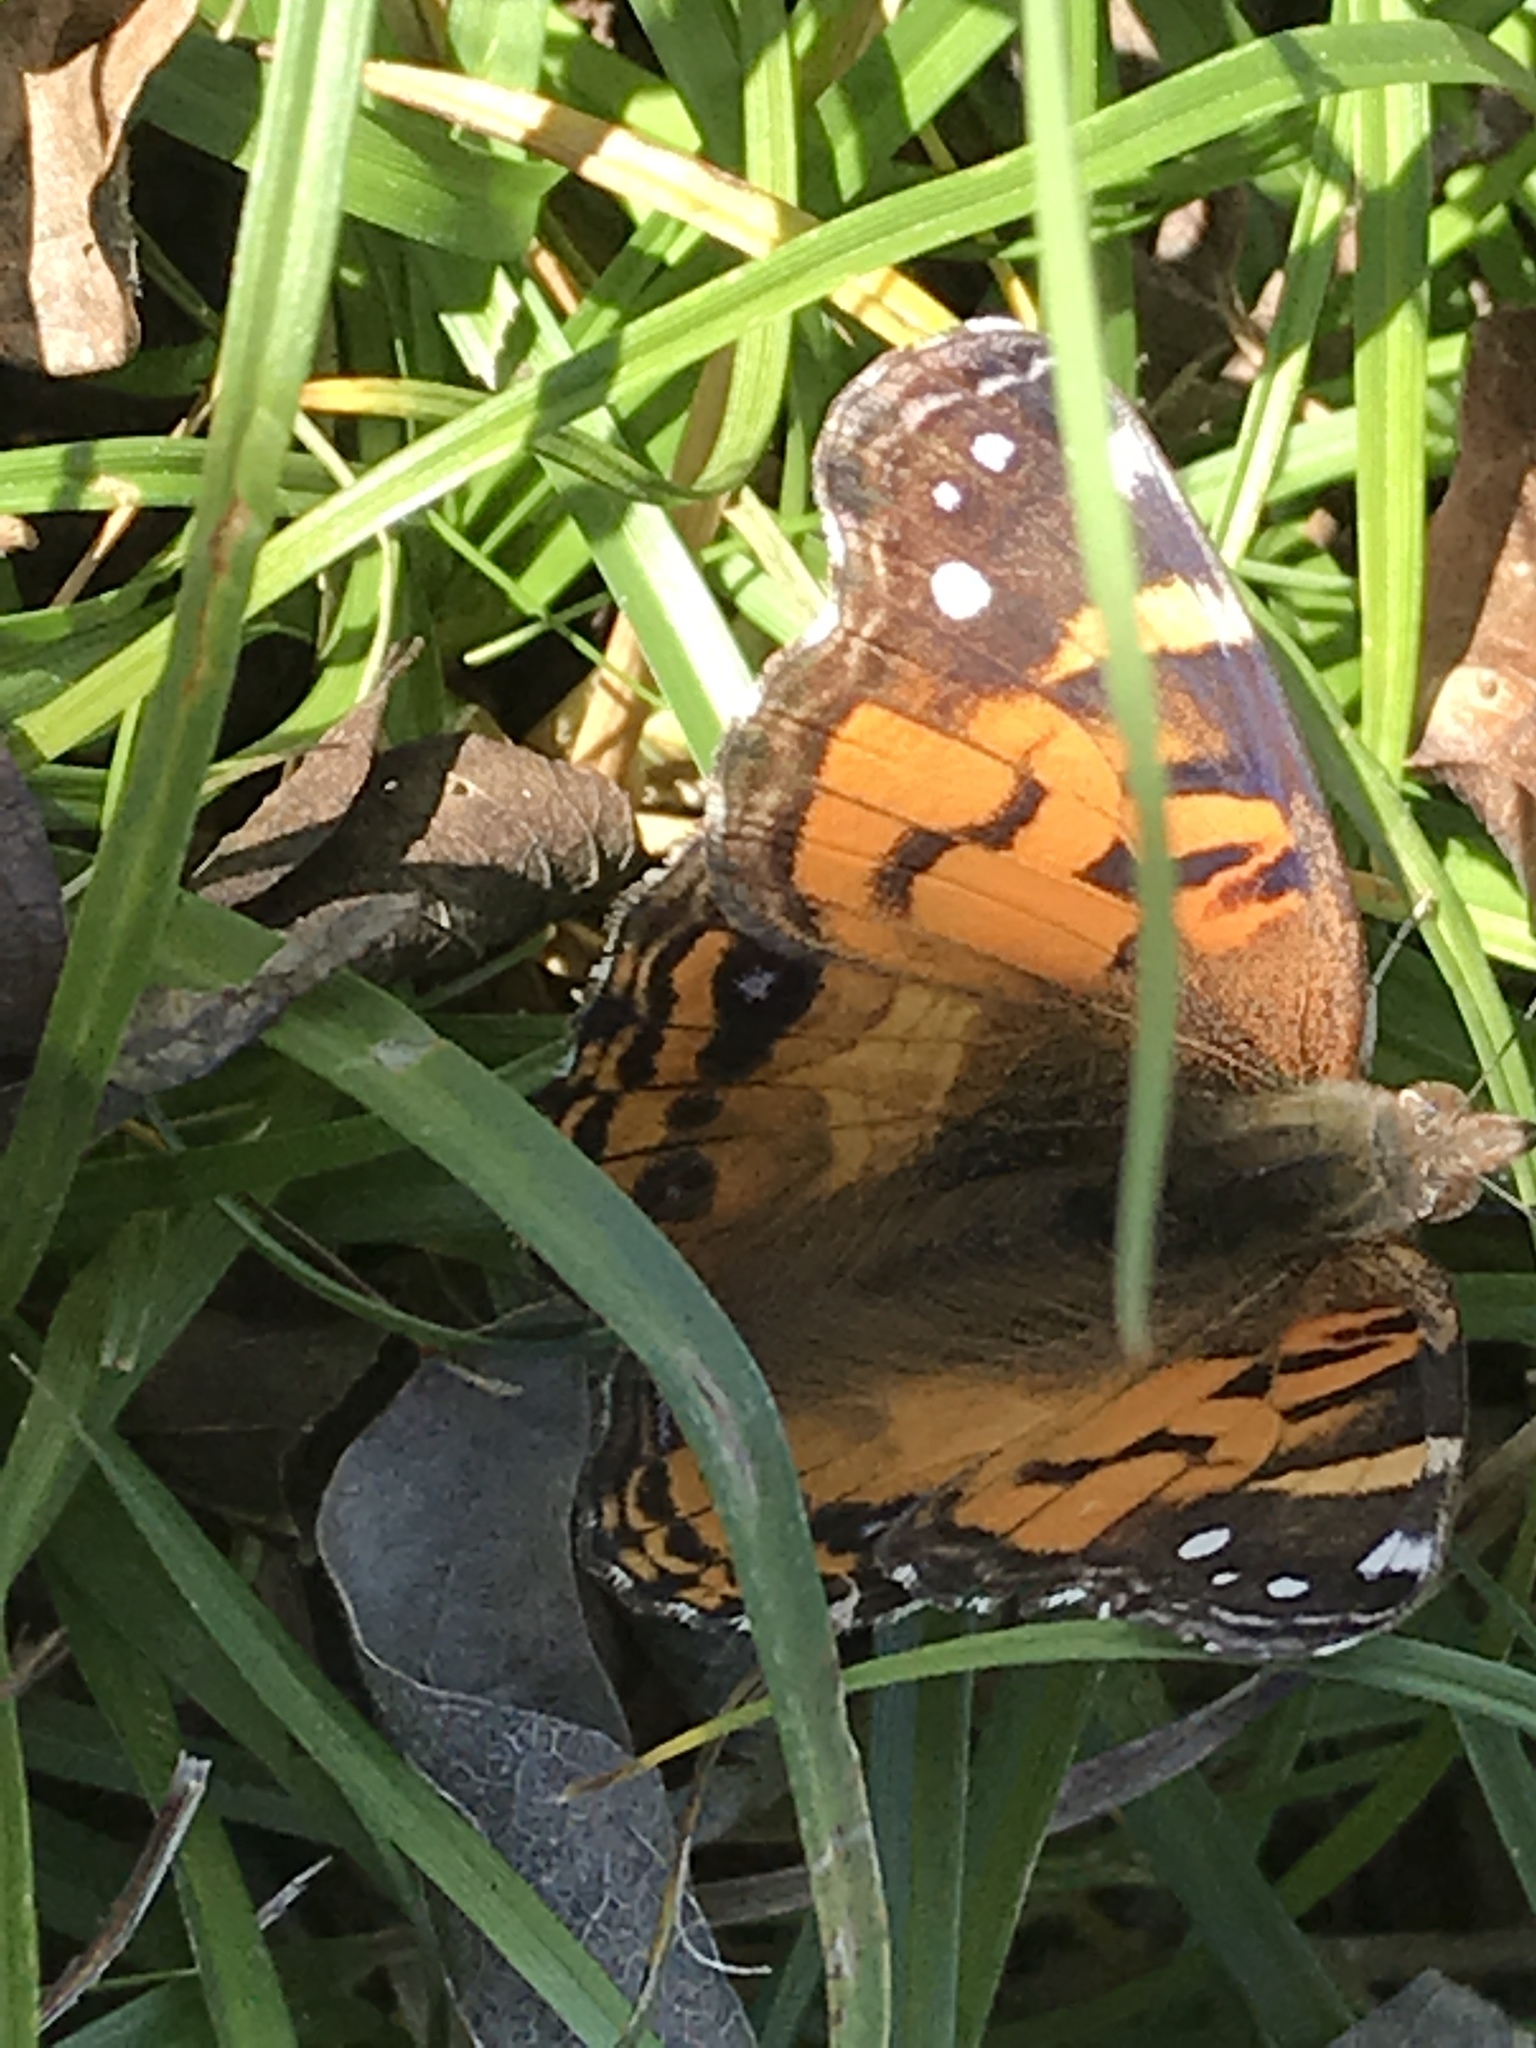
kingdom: Animalia
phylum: Arthropoda
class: Insecta
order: Lepidoptera
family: Nymphalidae
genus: Vanessa
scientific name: Vanessa virginiensis
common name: American lady
